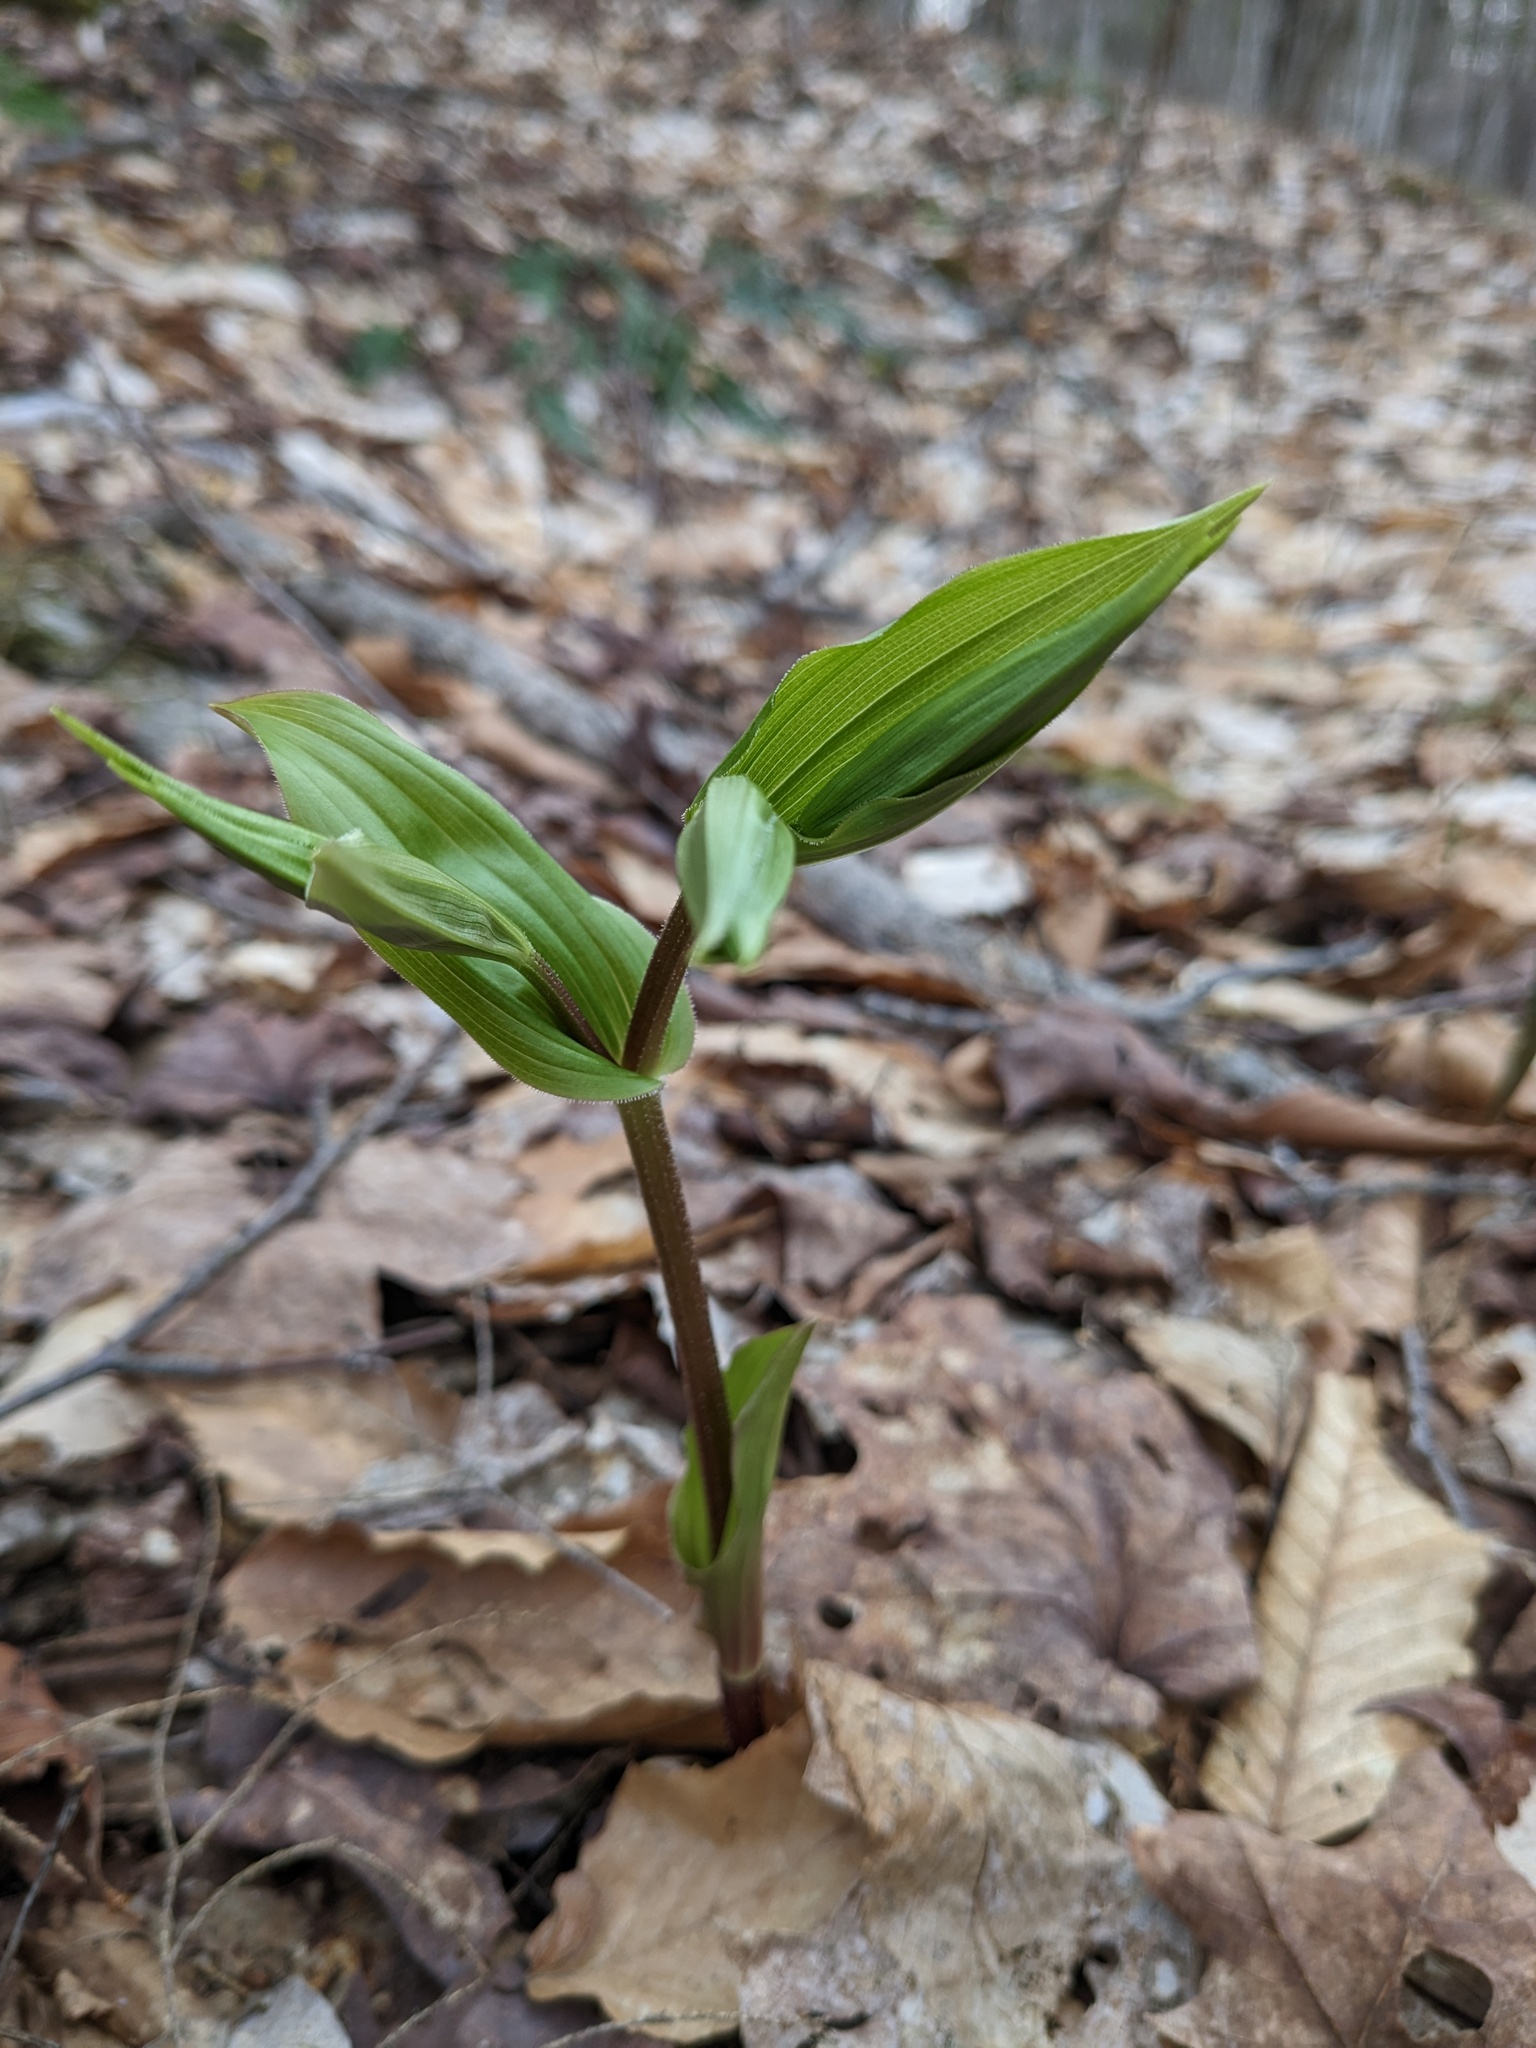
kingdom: Plantae
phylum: Tracheophyta
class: Liliopsida
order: Liliales
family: Liliaceae
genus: Streptopus
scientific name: Streptopus lanceolatus
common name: Rose mandarin
